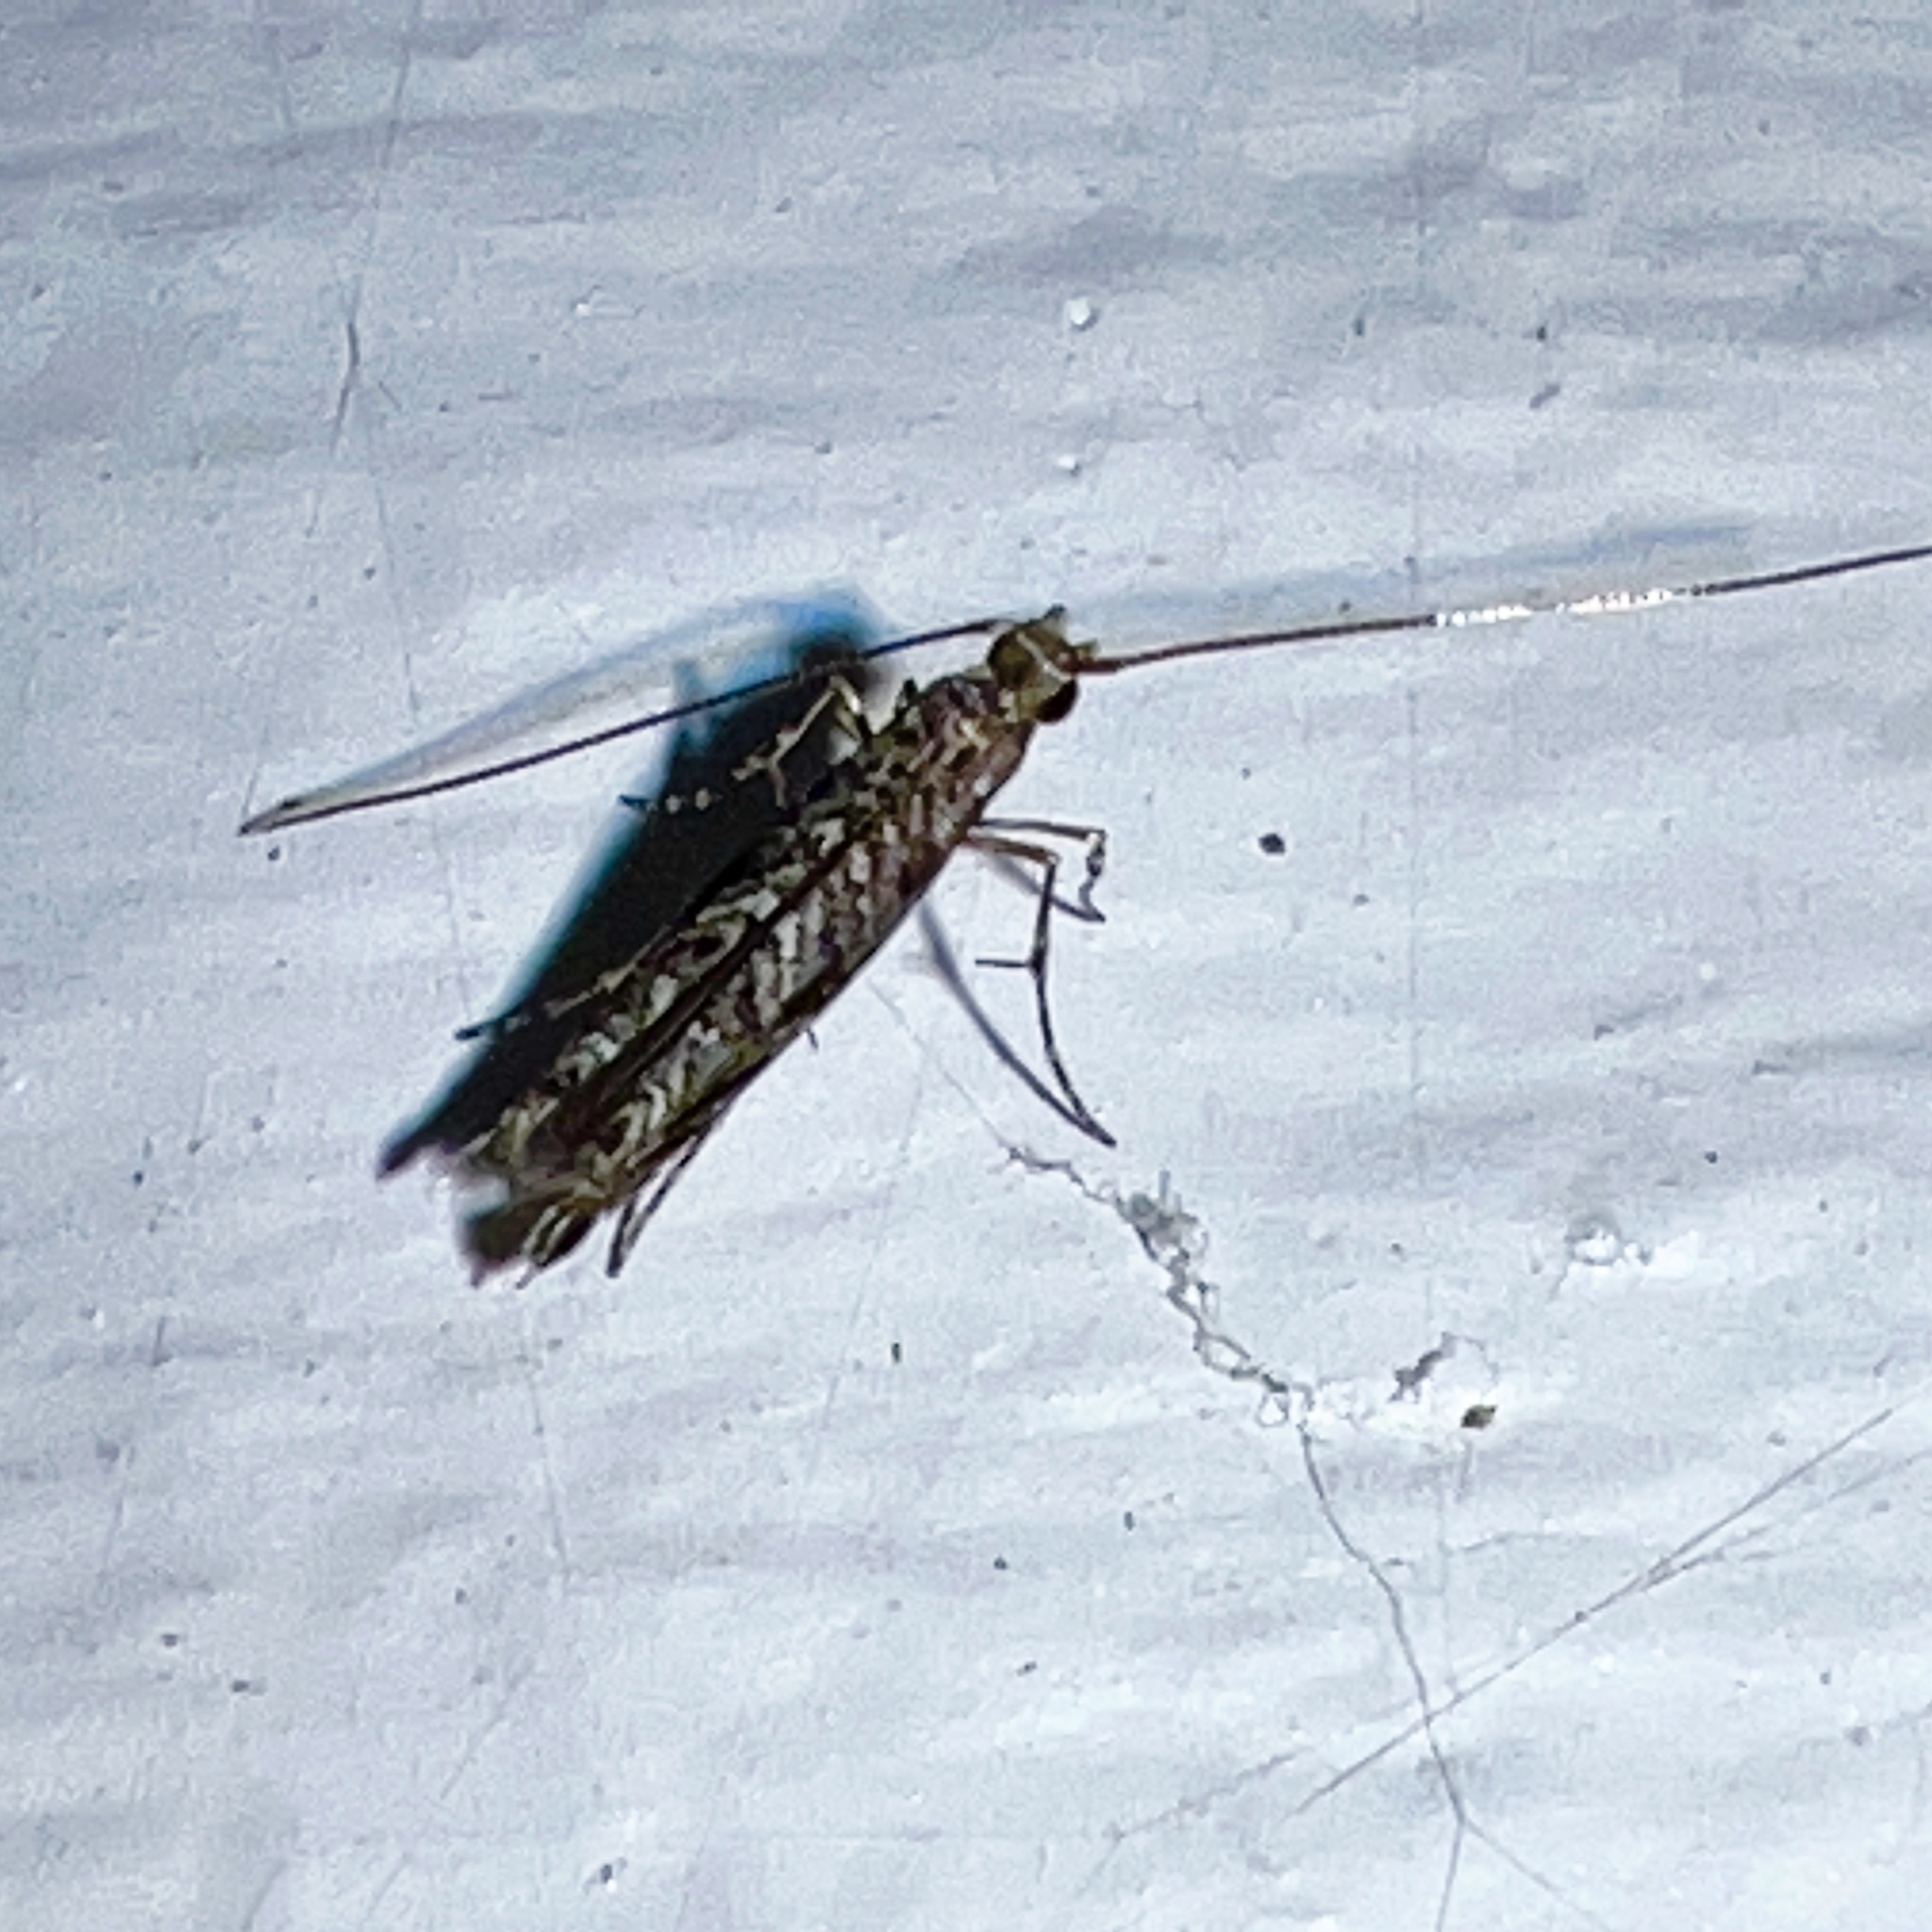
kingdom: Animalia
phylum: Arthropoda
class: Insecta
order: Lepidoptera
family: Gracillariidae
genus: Neurobathra
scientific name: Neurobathra strigifinitella
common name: Finite-channeled leafminer moth
